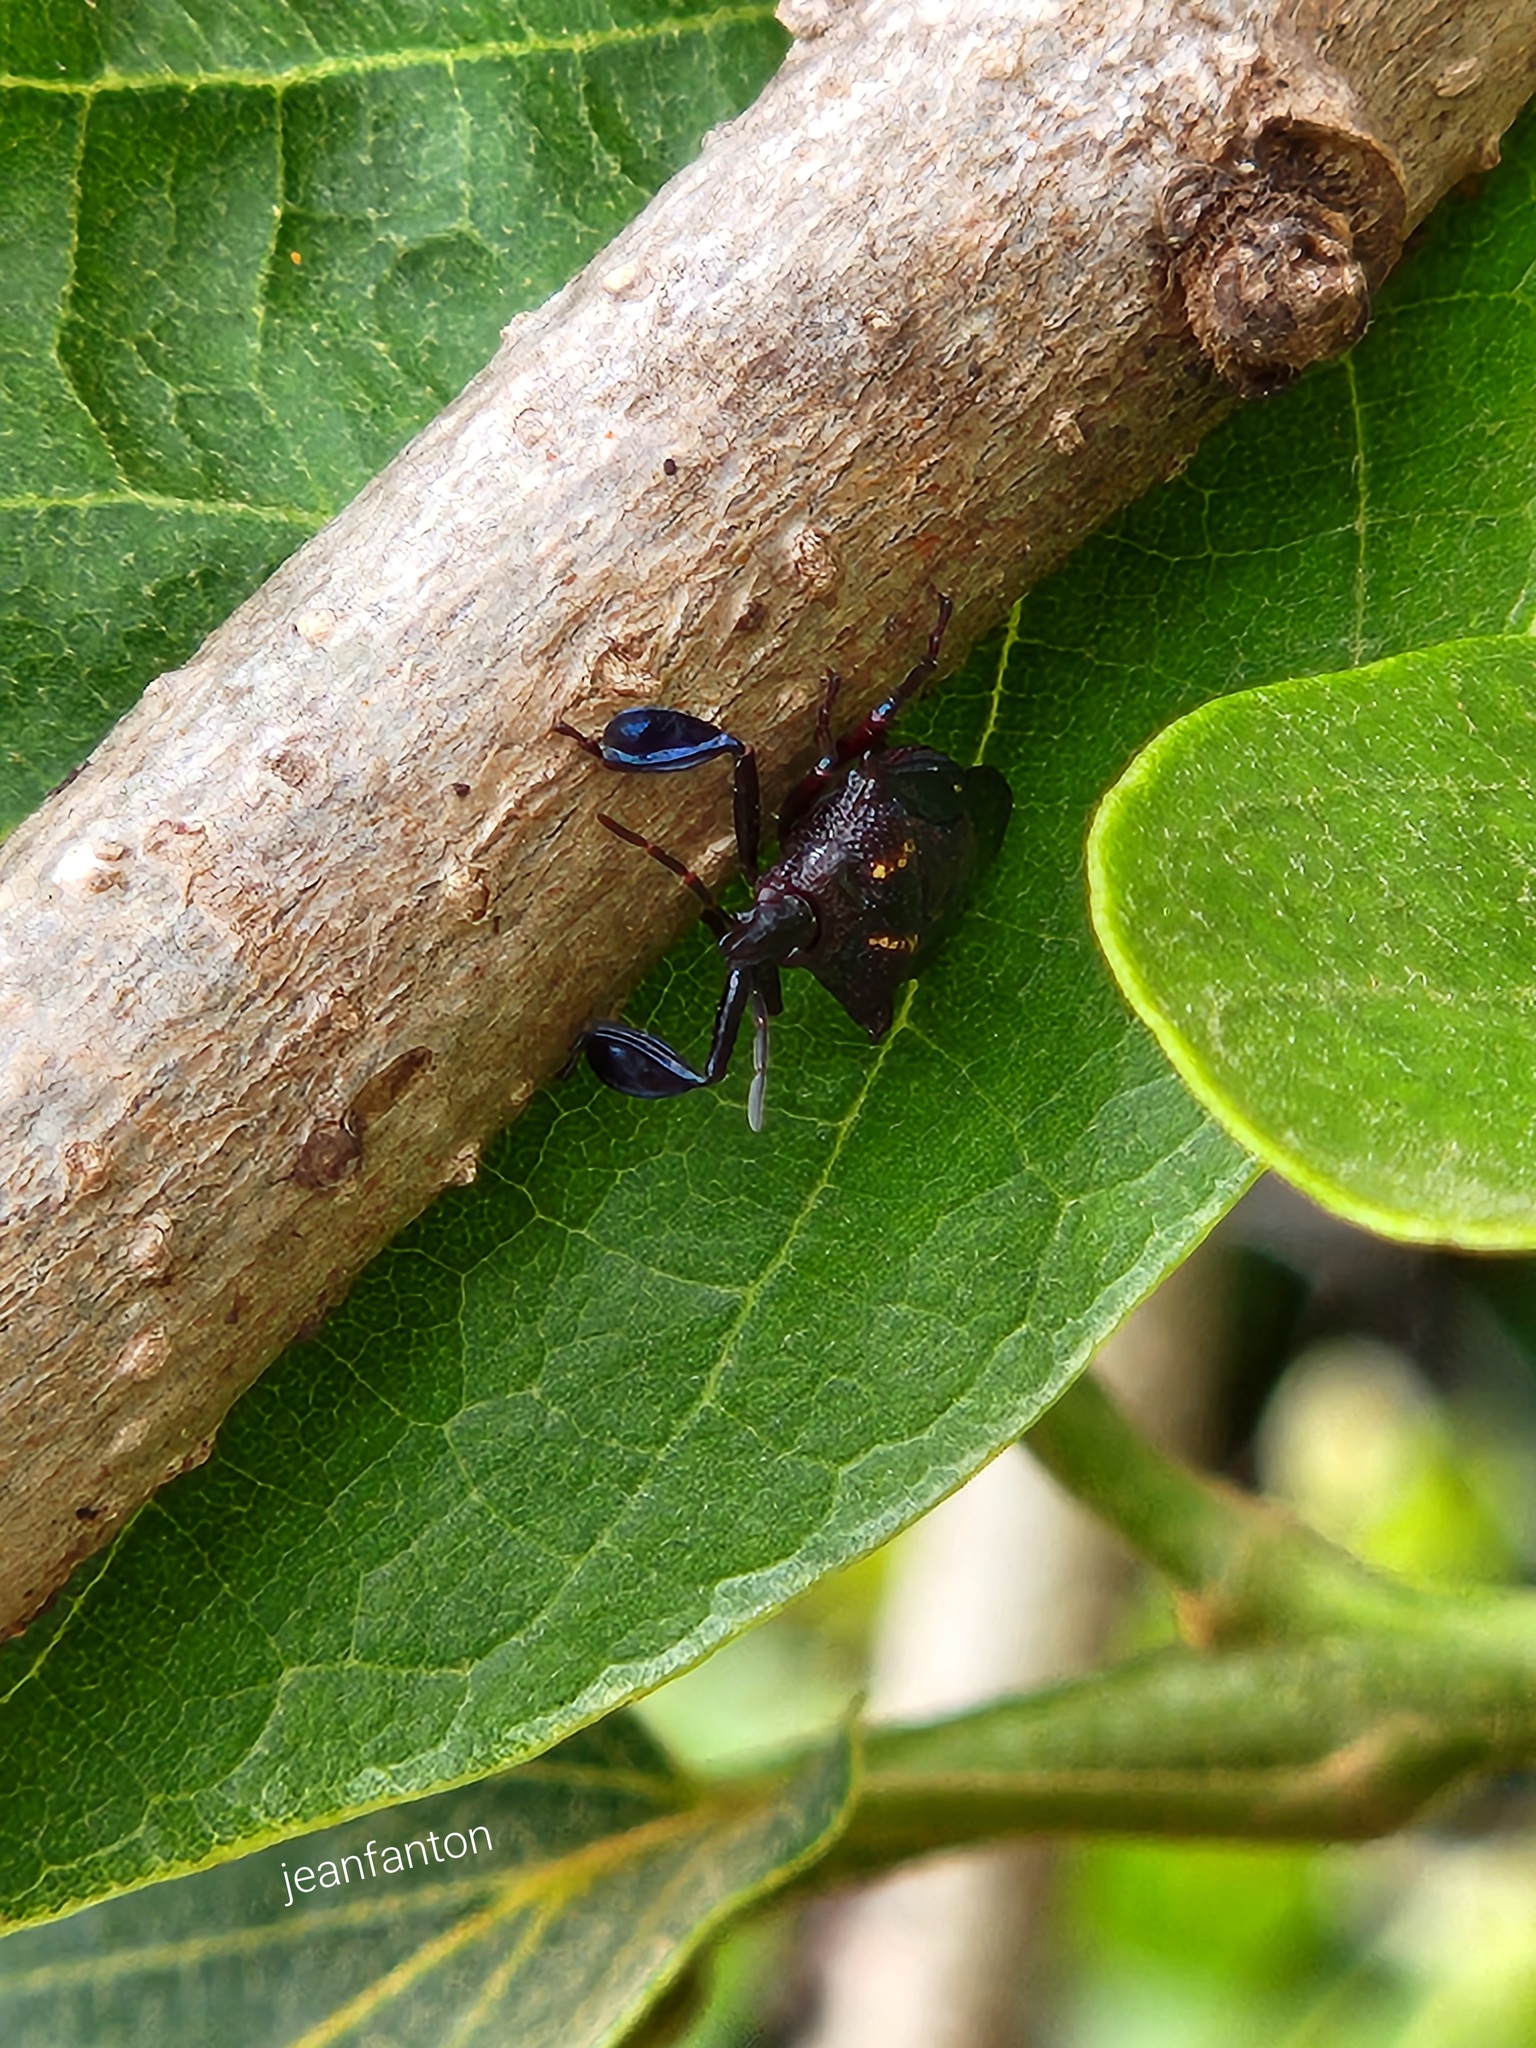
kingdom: Animalia
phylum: Arthropoda
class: Insecta
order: Hemiptera
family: Pentatomidae
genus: Heteroscelis
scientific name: Heteroscelis servillii
